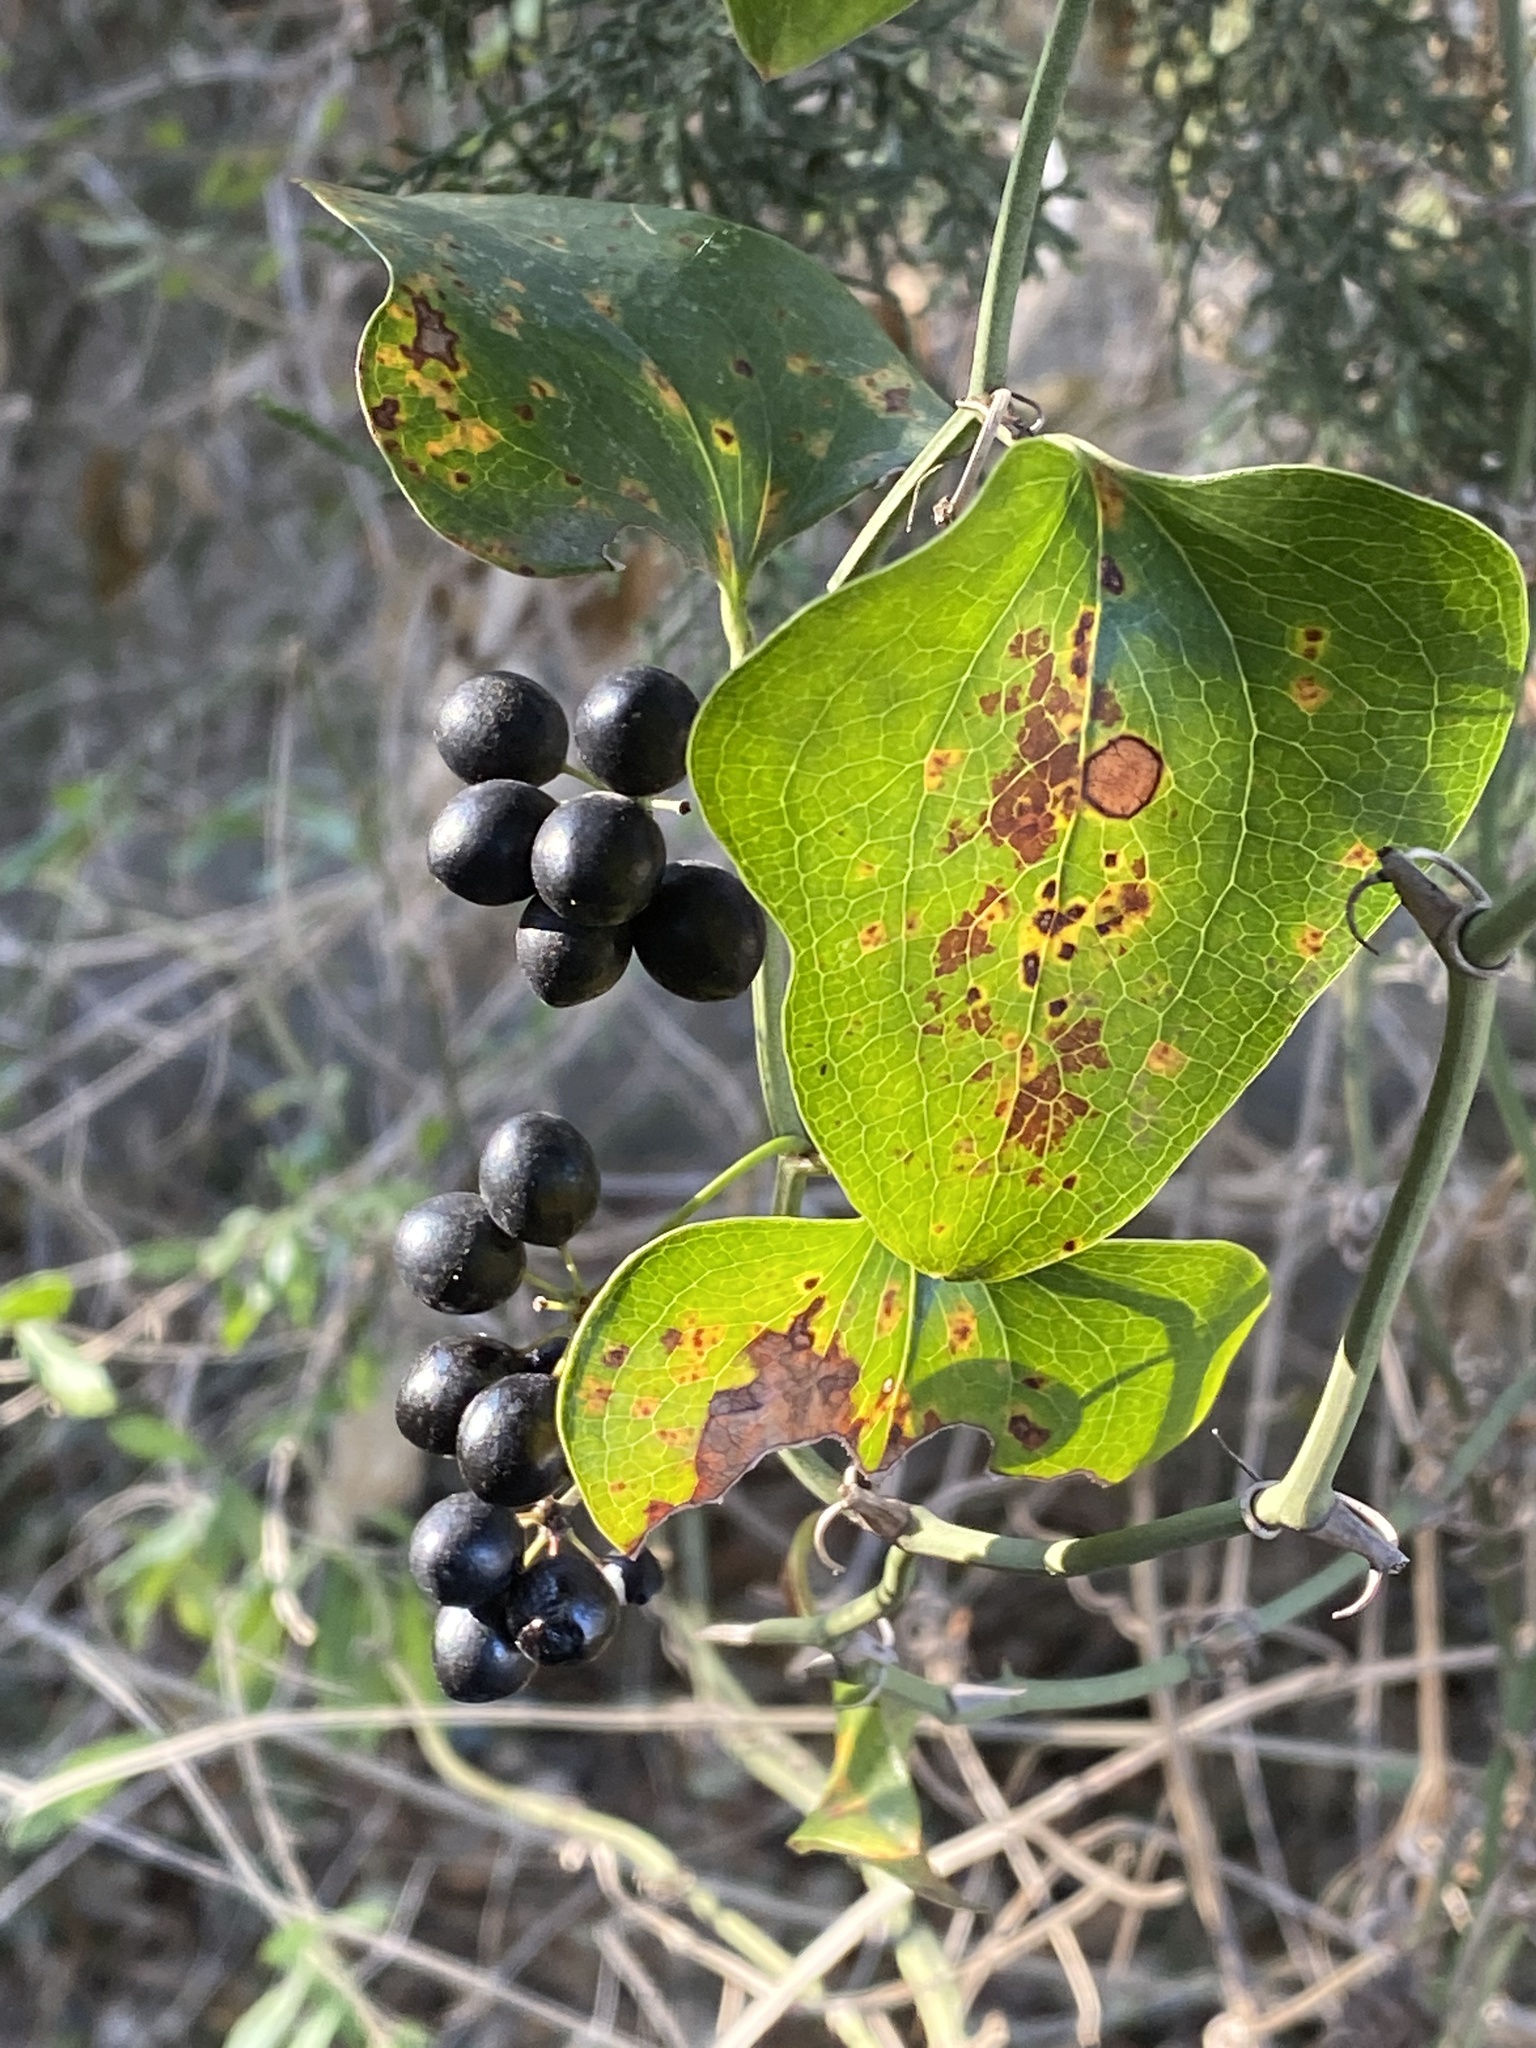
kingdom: Plantae
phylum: Tracheophyta
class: Liliopsida
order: Liliales
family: Smilacaceae
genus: Smilax
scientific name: Smilax bona-nox
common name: Catbrier
